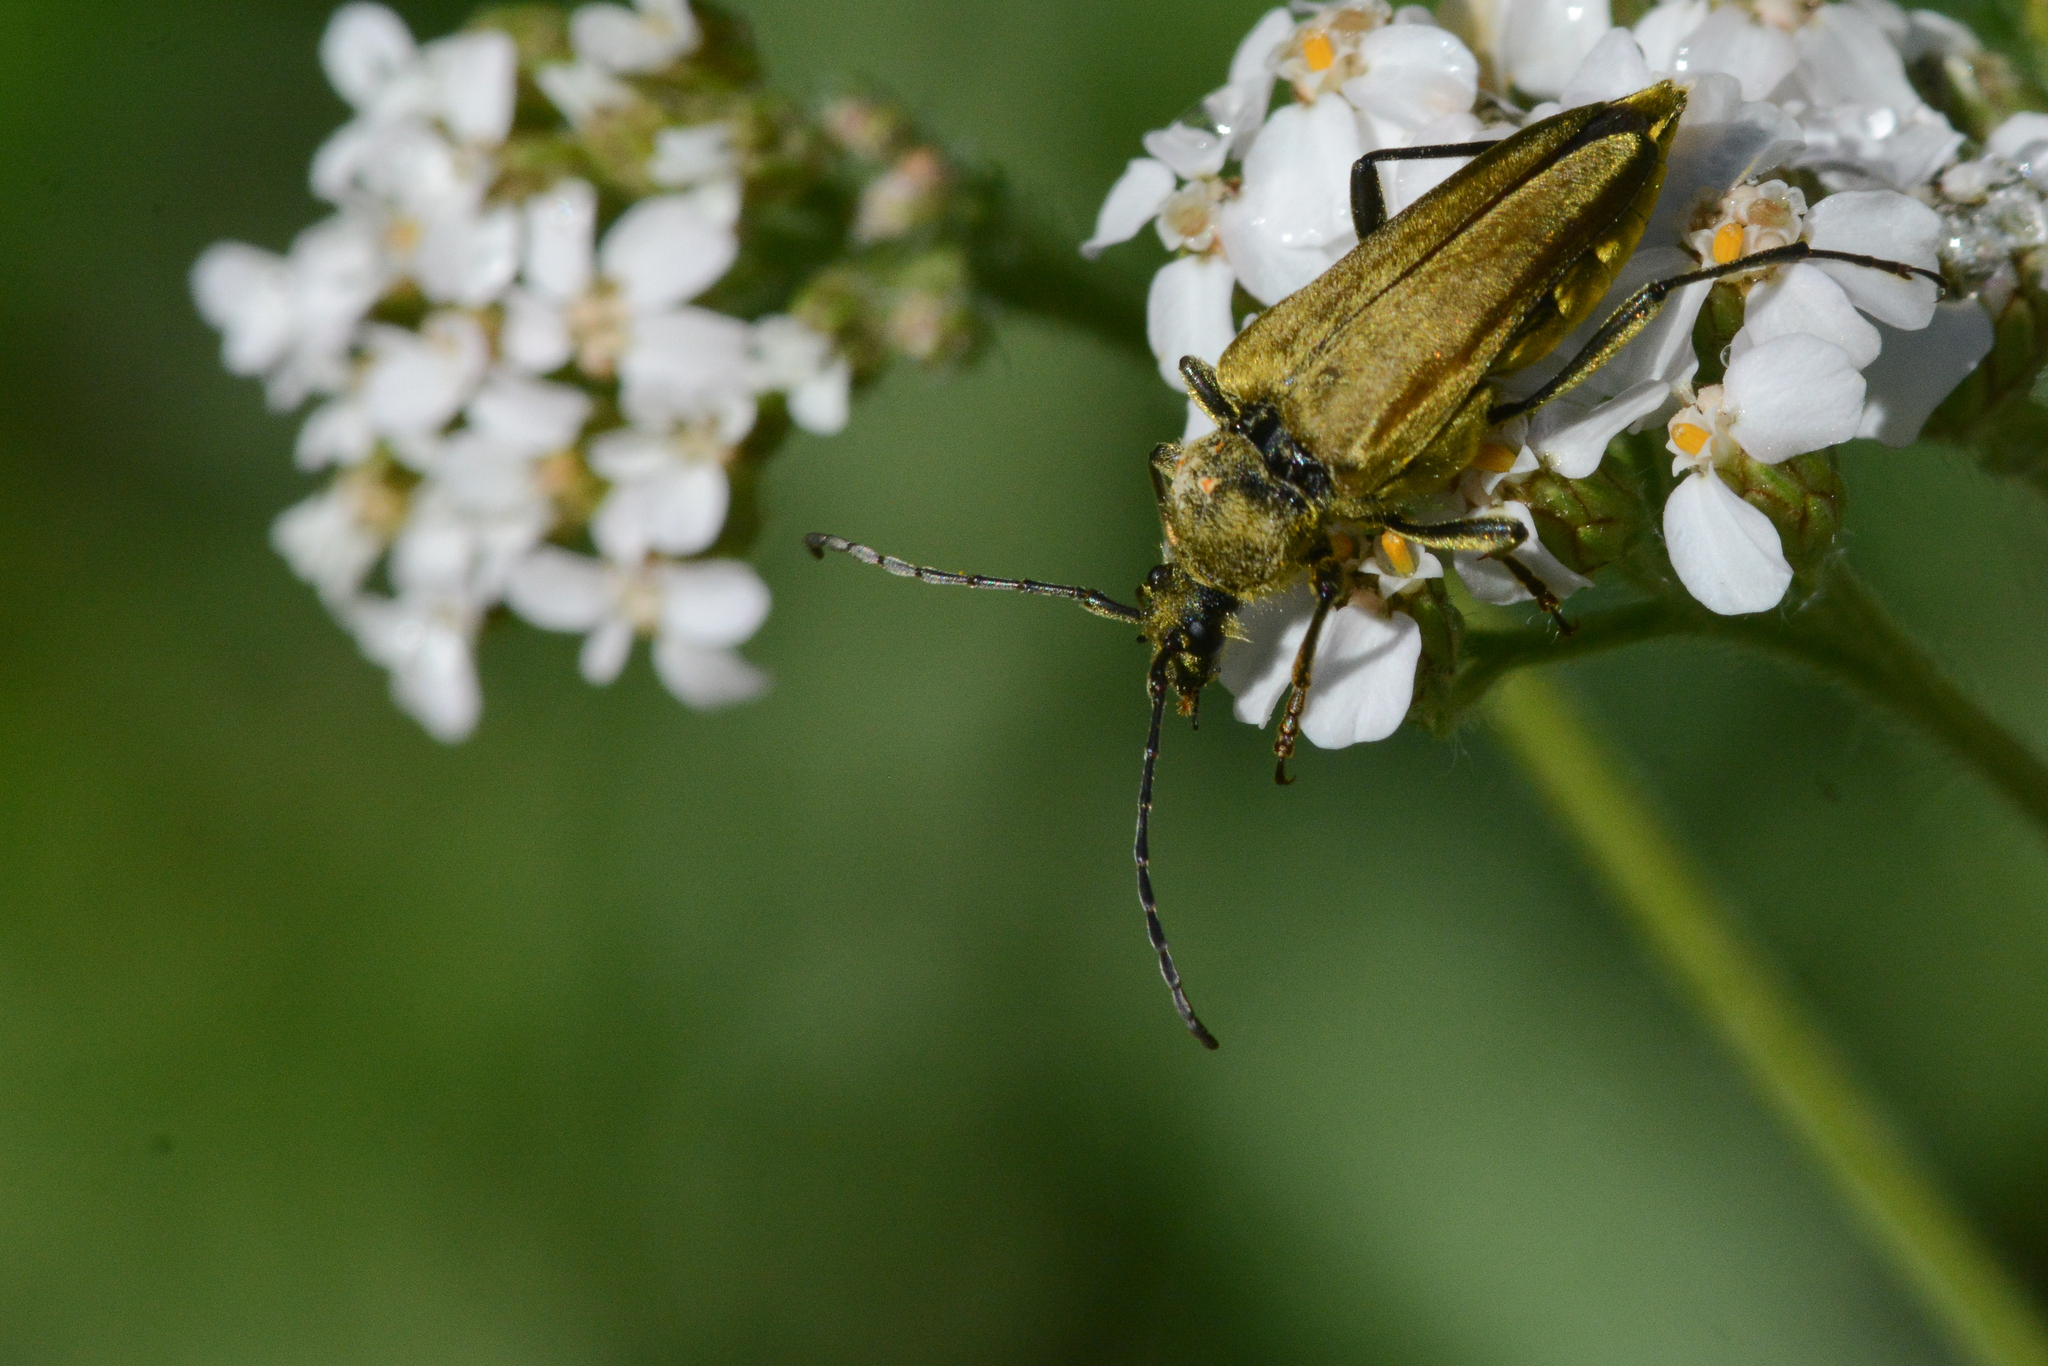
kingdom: Animalia
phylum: Arthropoda
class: Insecta
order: Coleoptera
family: Cerambycidae
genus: Cosmosalia
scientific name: Cosmosalia chrysocoma
